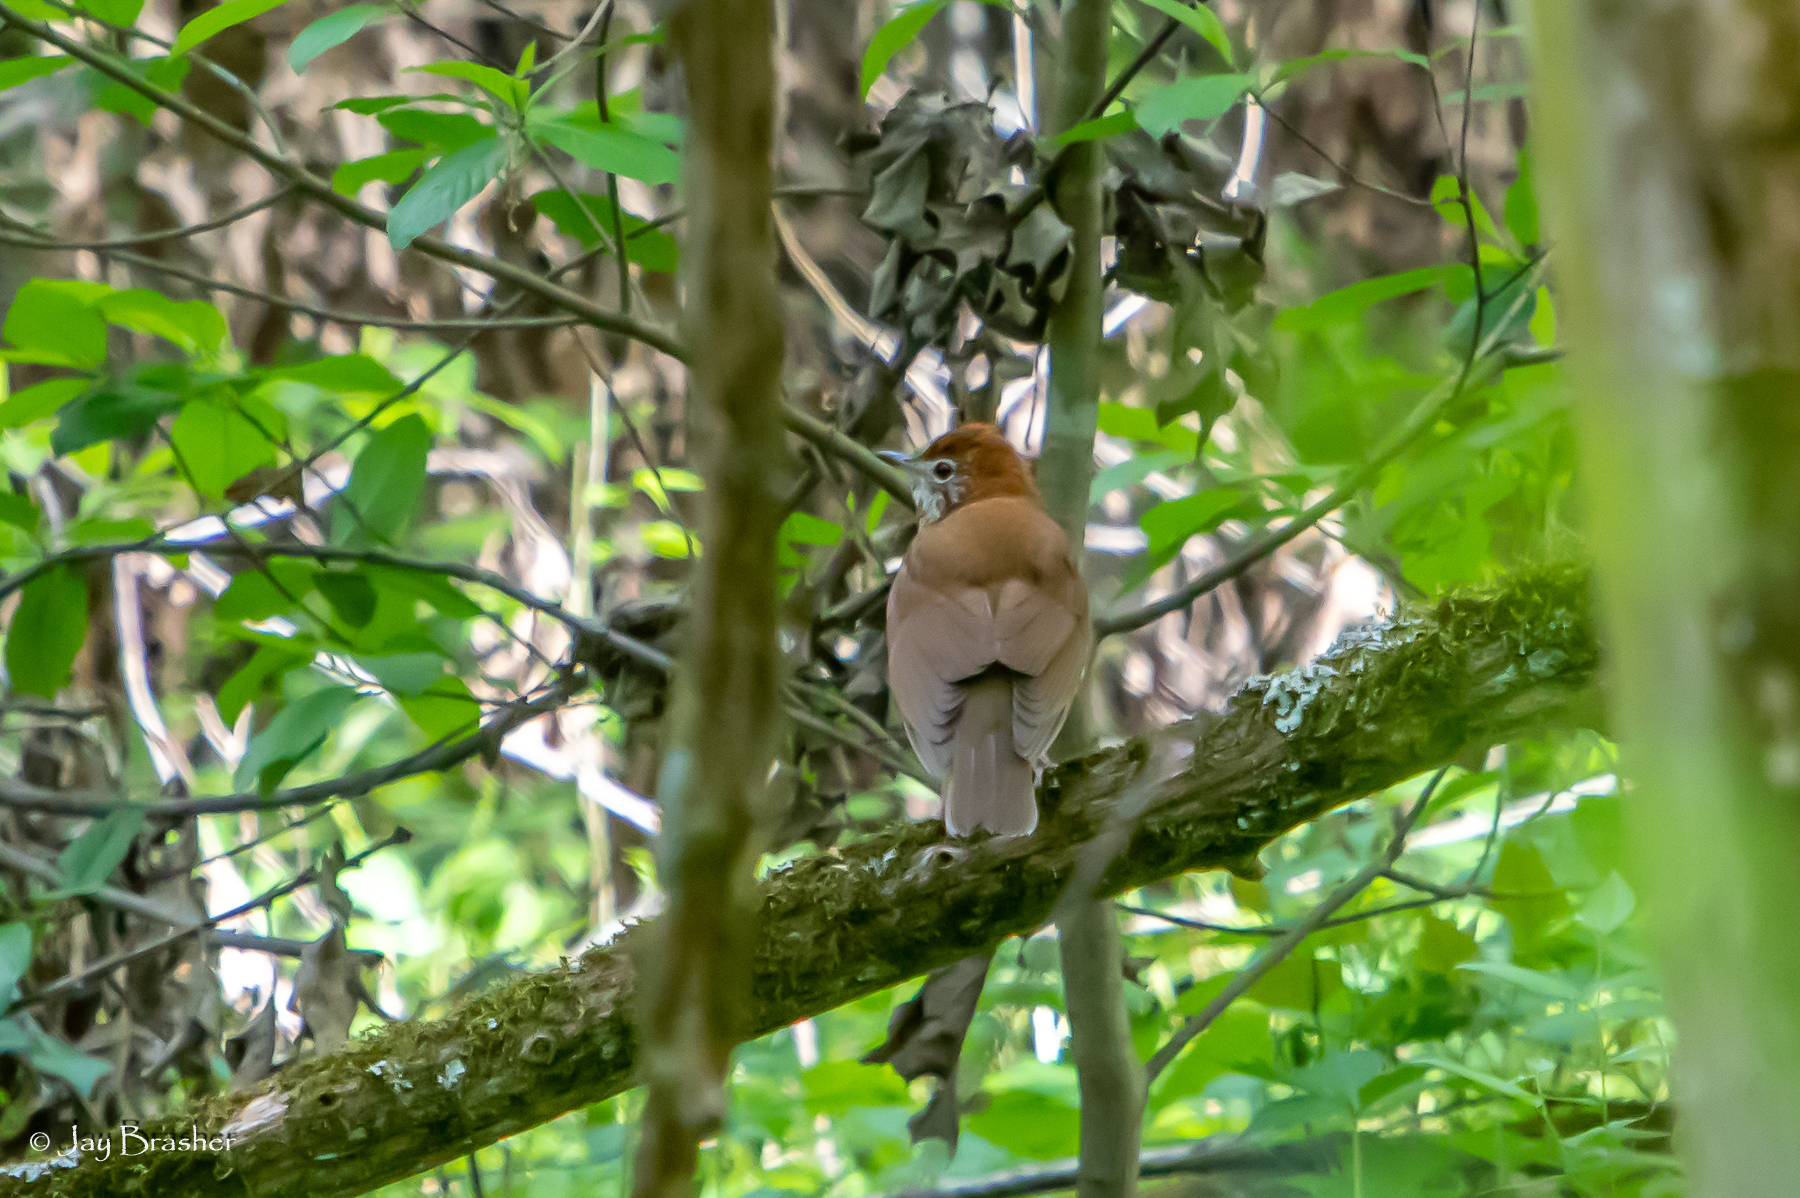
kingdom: Animalia
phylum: Chordata
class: Aves
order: Passeriformes
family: Turdidae
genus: Hylocichla
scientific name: Hylocichla mustelina
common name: Wood thrush
